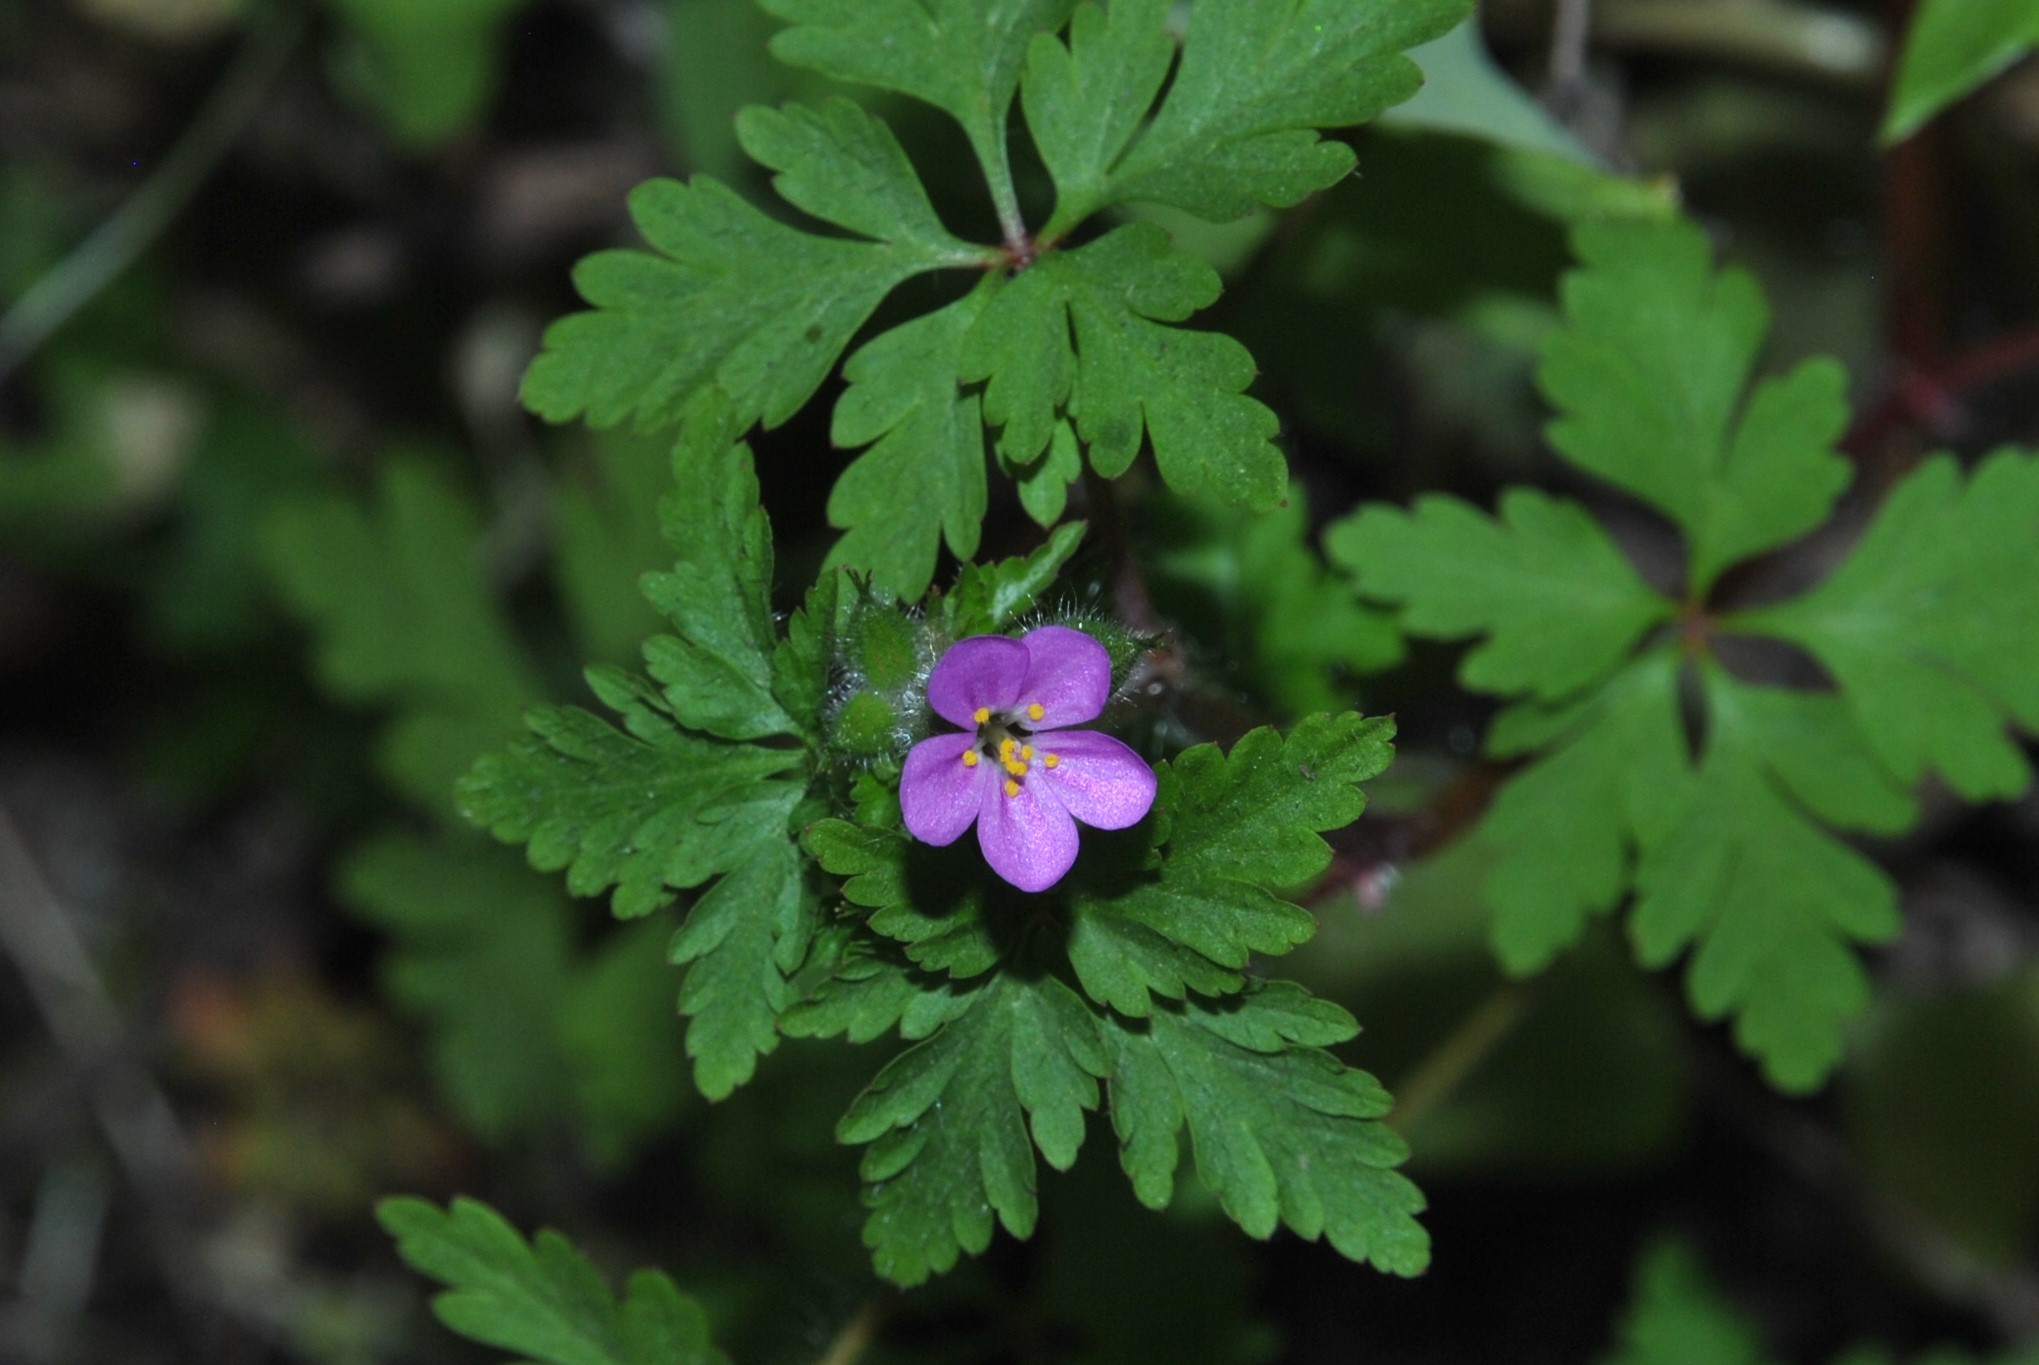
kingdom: Plantae
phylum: Tracheophyta
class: Magnoliopsida
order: Geraniales
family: Geraniaceae
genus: Geranium
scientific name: Geranium purpureum
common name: Little-robin
